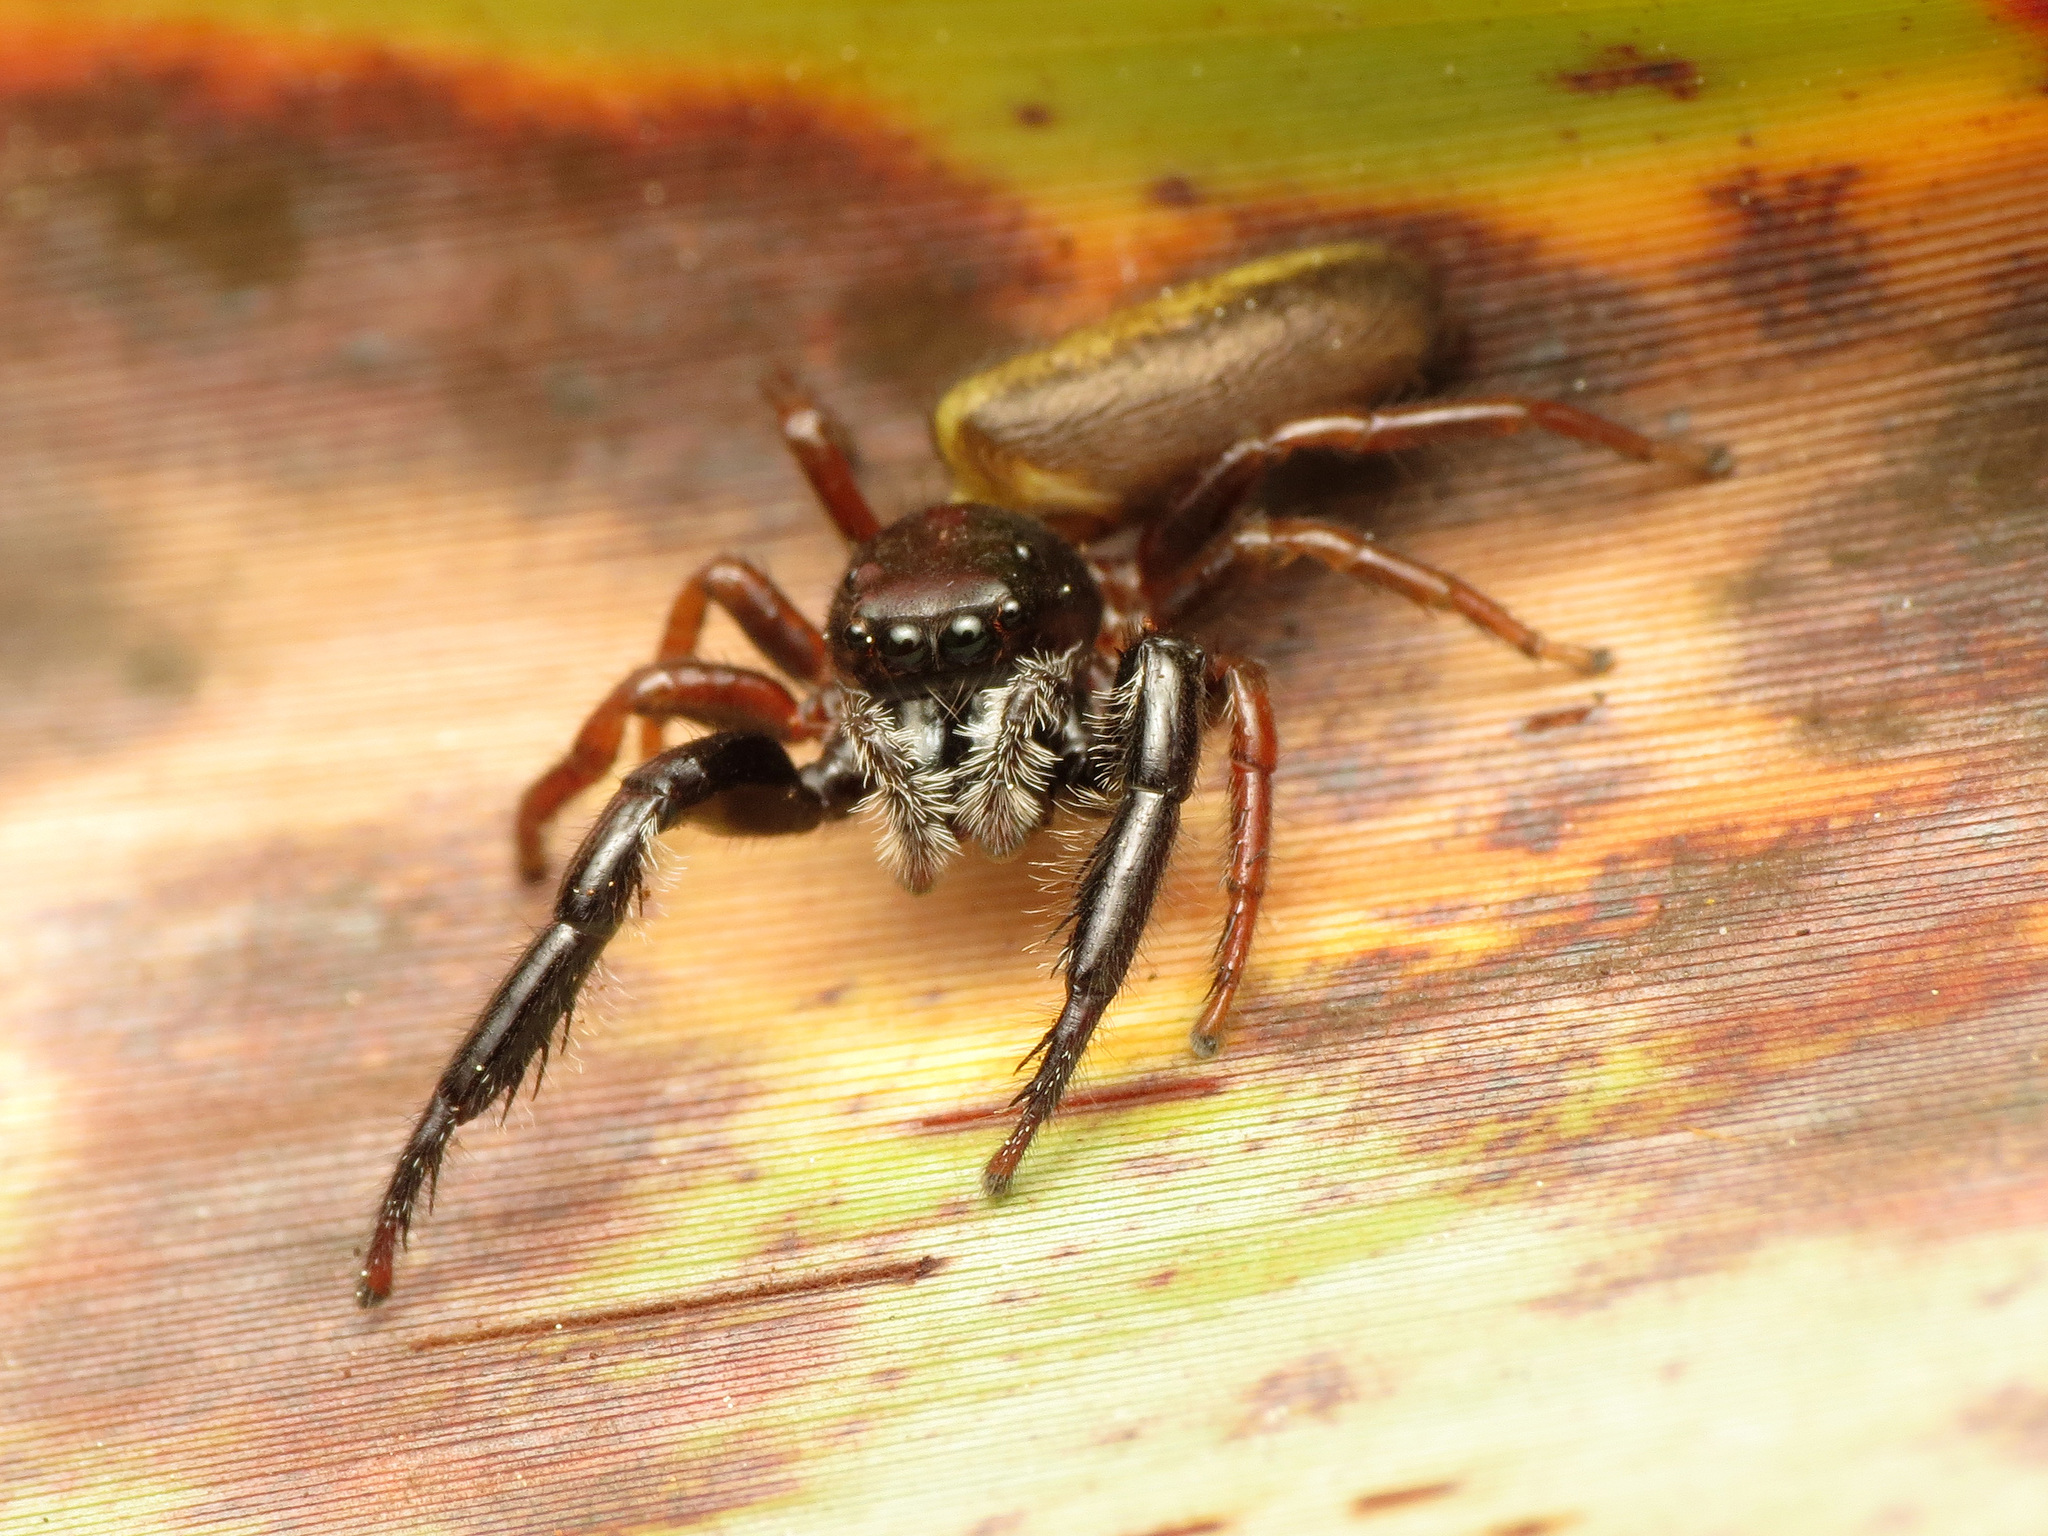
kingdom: Animalia
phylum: Arthropoda
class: Arachnida
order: Araneae
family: Salticidae
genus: Trite
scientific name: Trite planiceps
